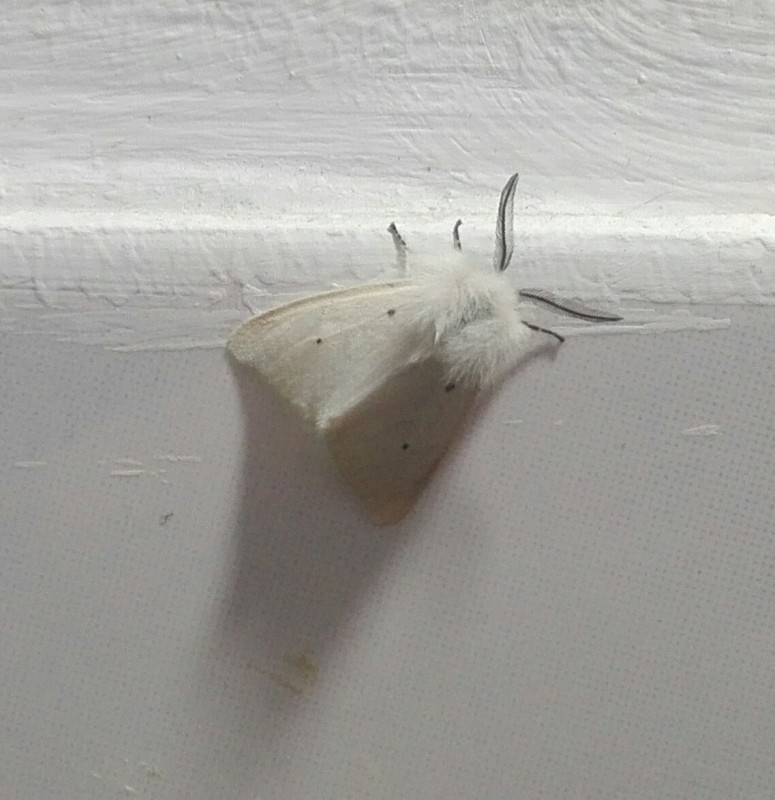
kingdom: Animalia
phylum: Arthropoda
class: Insecta
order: Lepidoptera
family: Erebidae
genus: Diaphora
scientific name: Diaphora mendica
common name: Muslin moth
